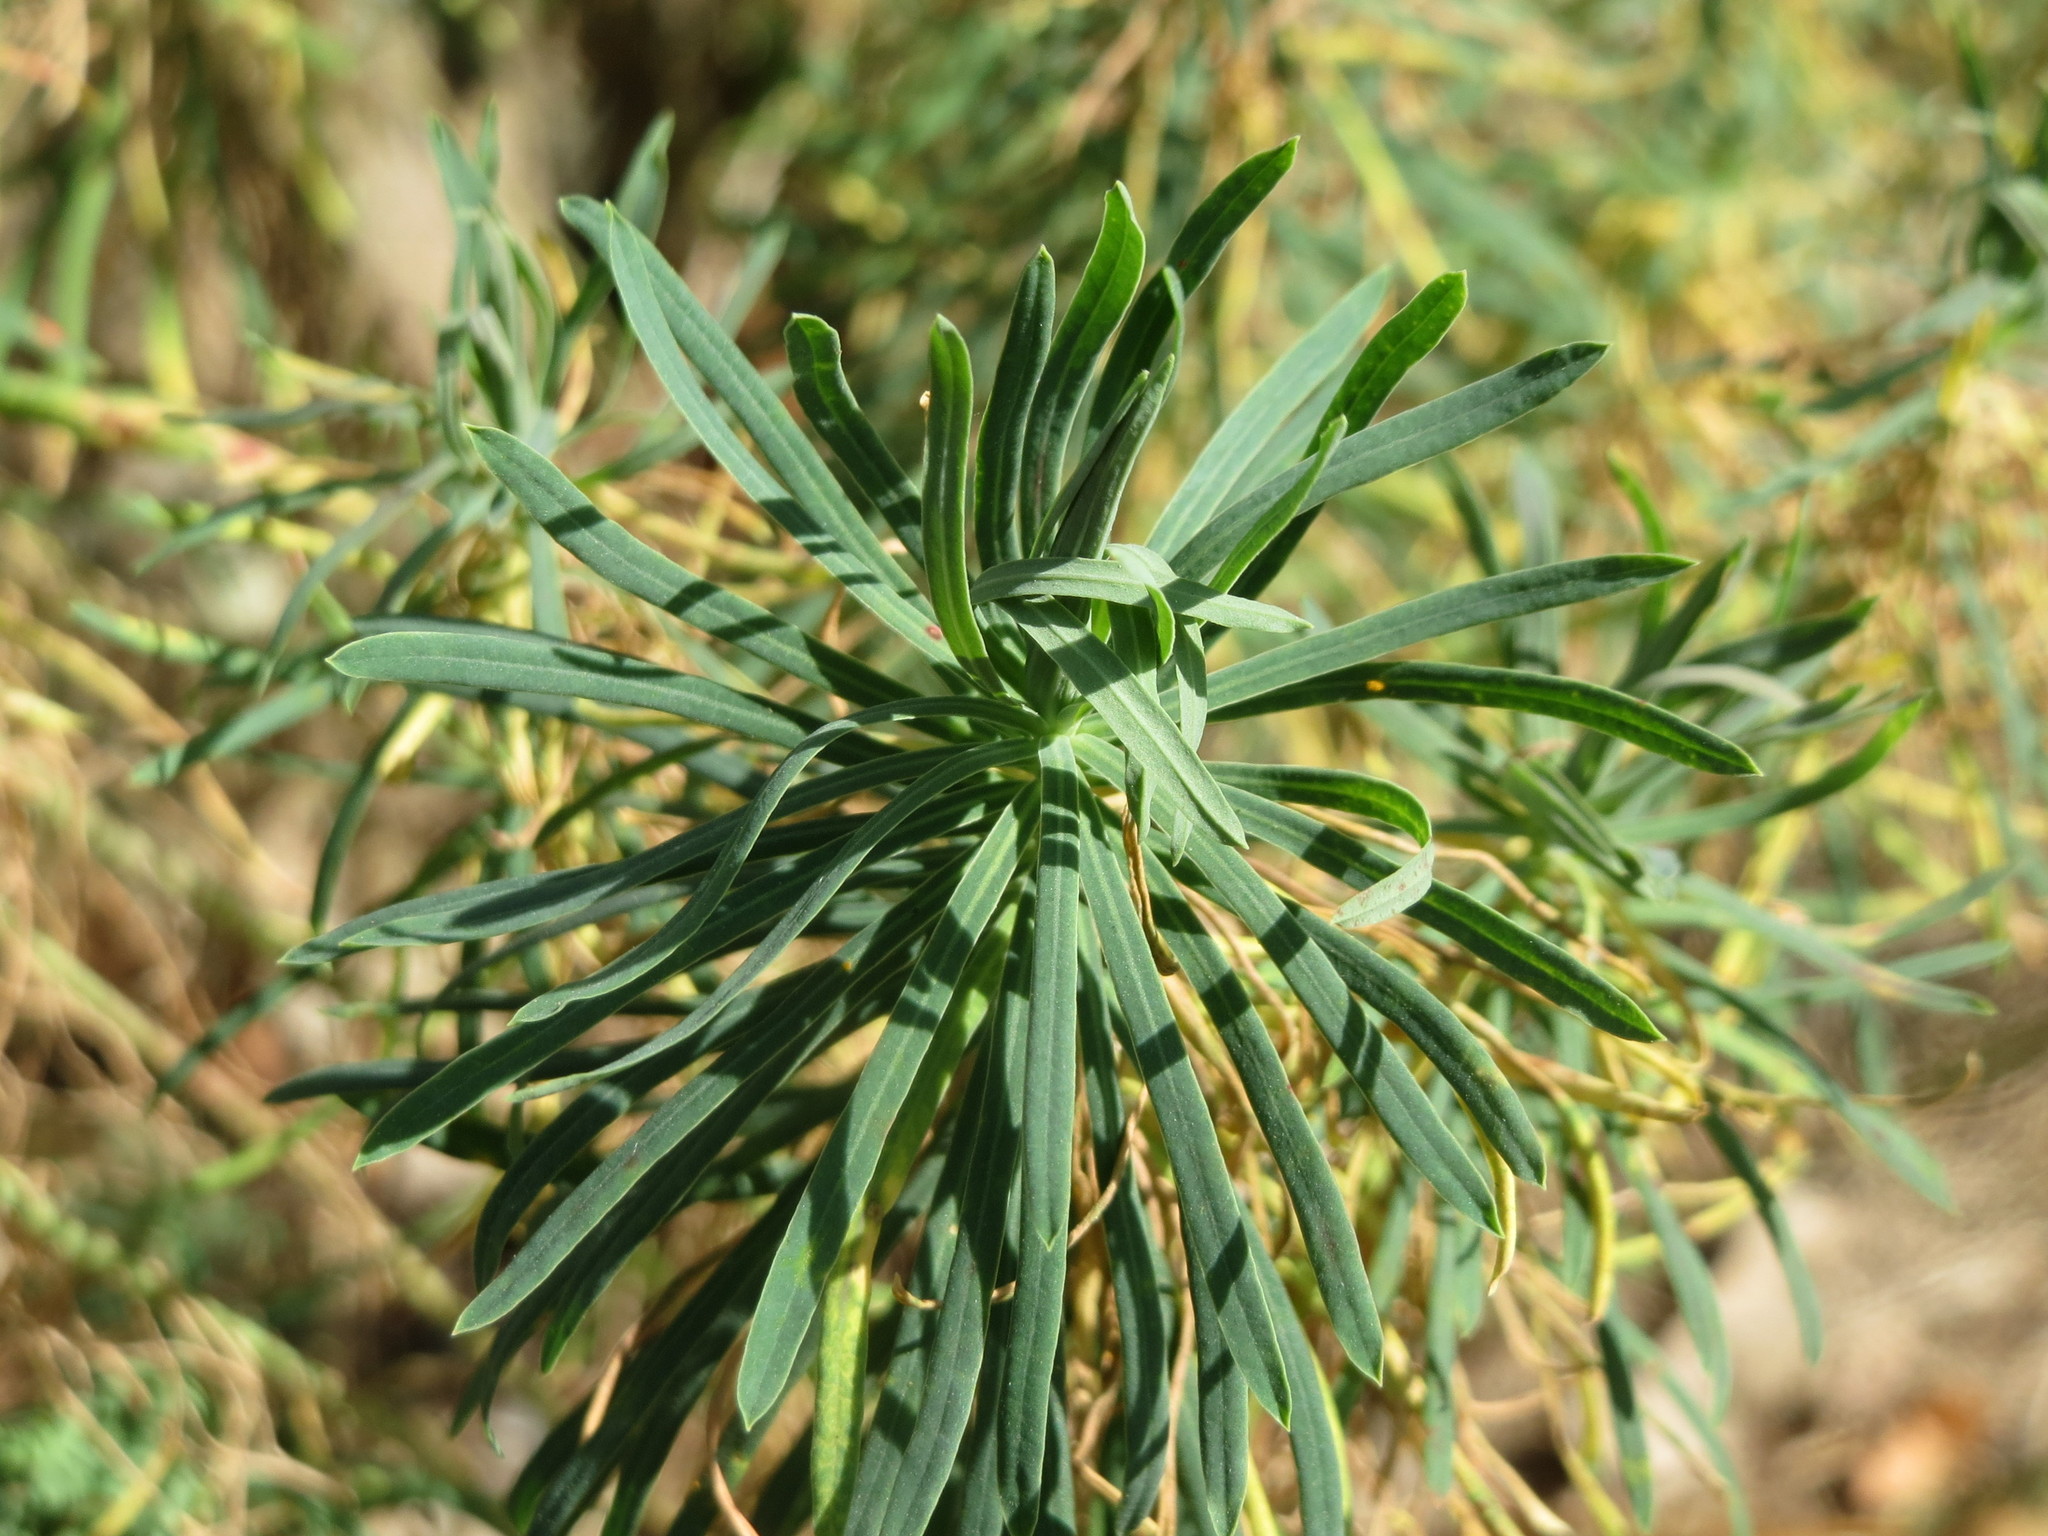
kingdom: Plantae
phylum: Tracheophyta
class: Magnoliopsida
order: Malpighiales
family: Euphorbiaceae
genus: Euphorbia
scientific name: Euphorbia cyparissias
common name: Cypress spurge
